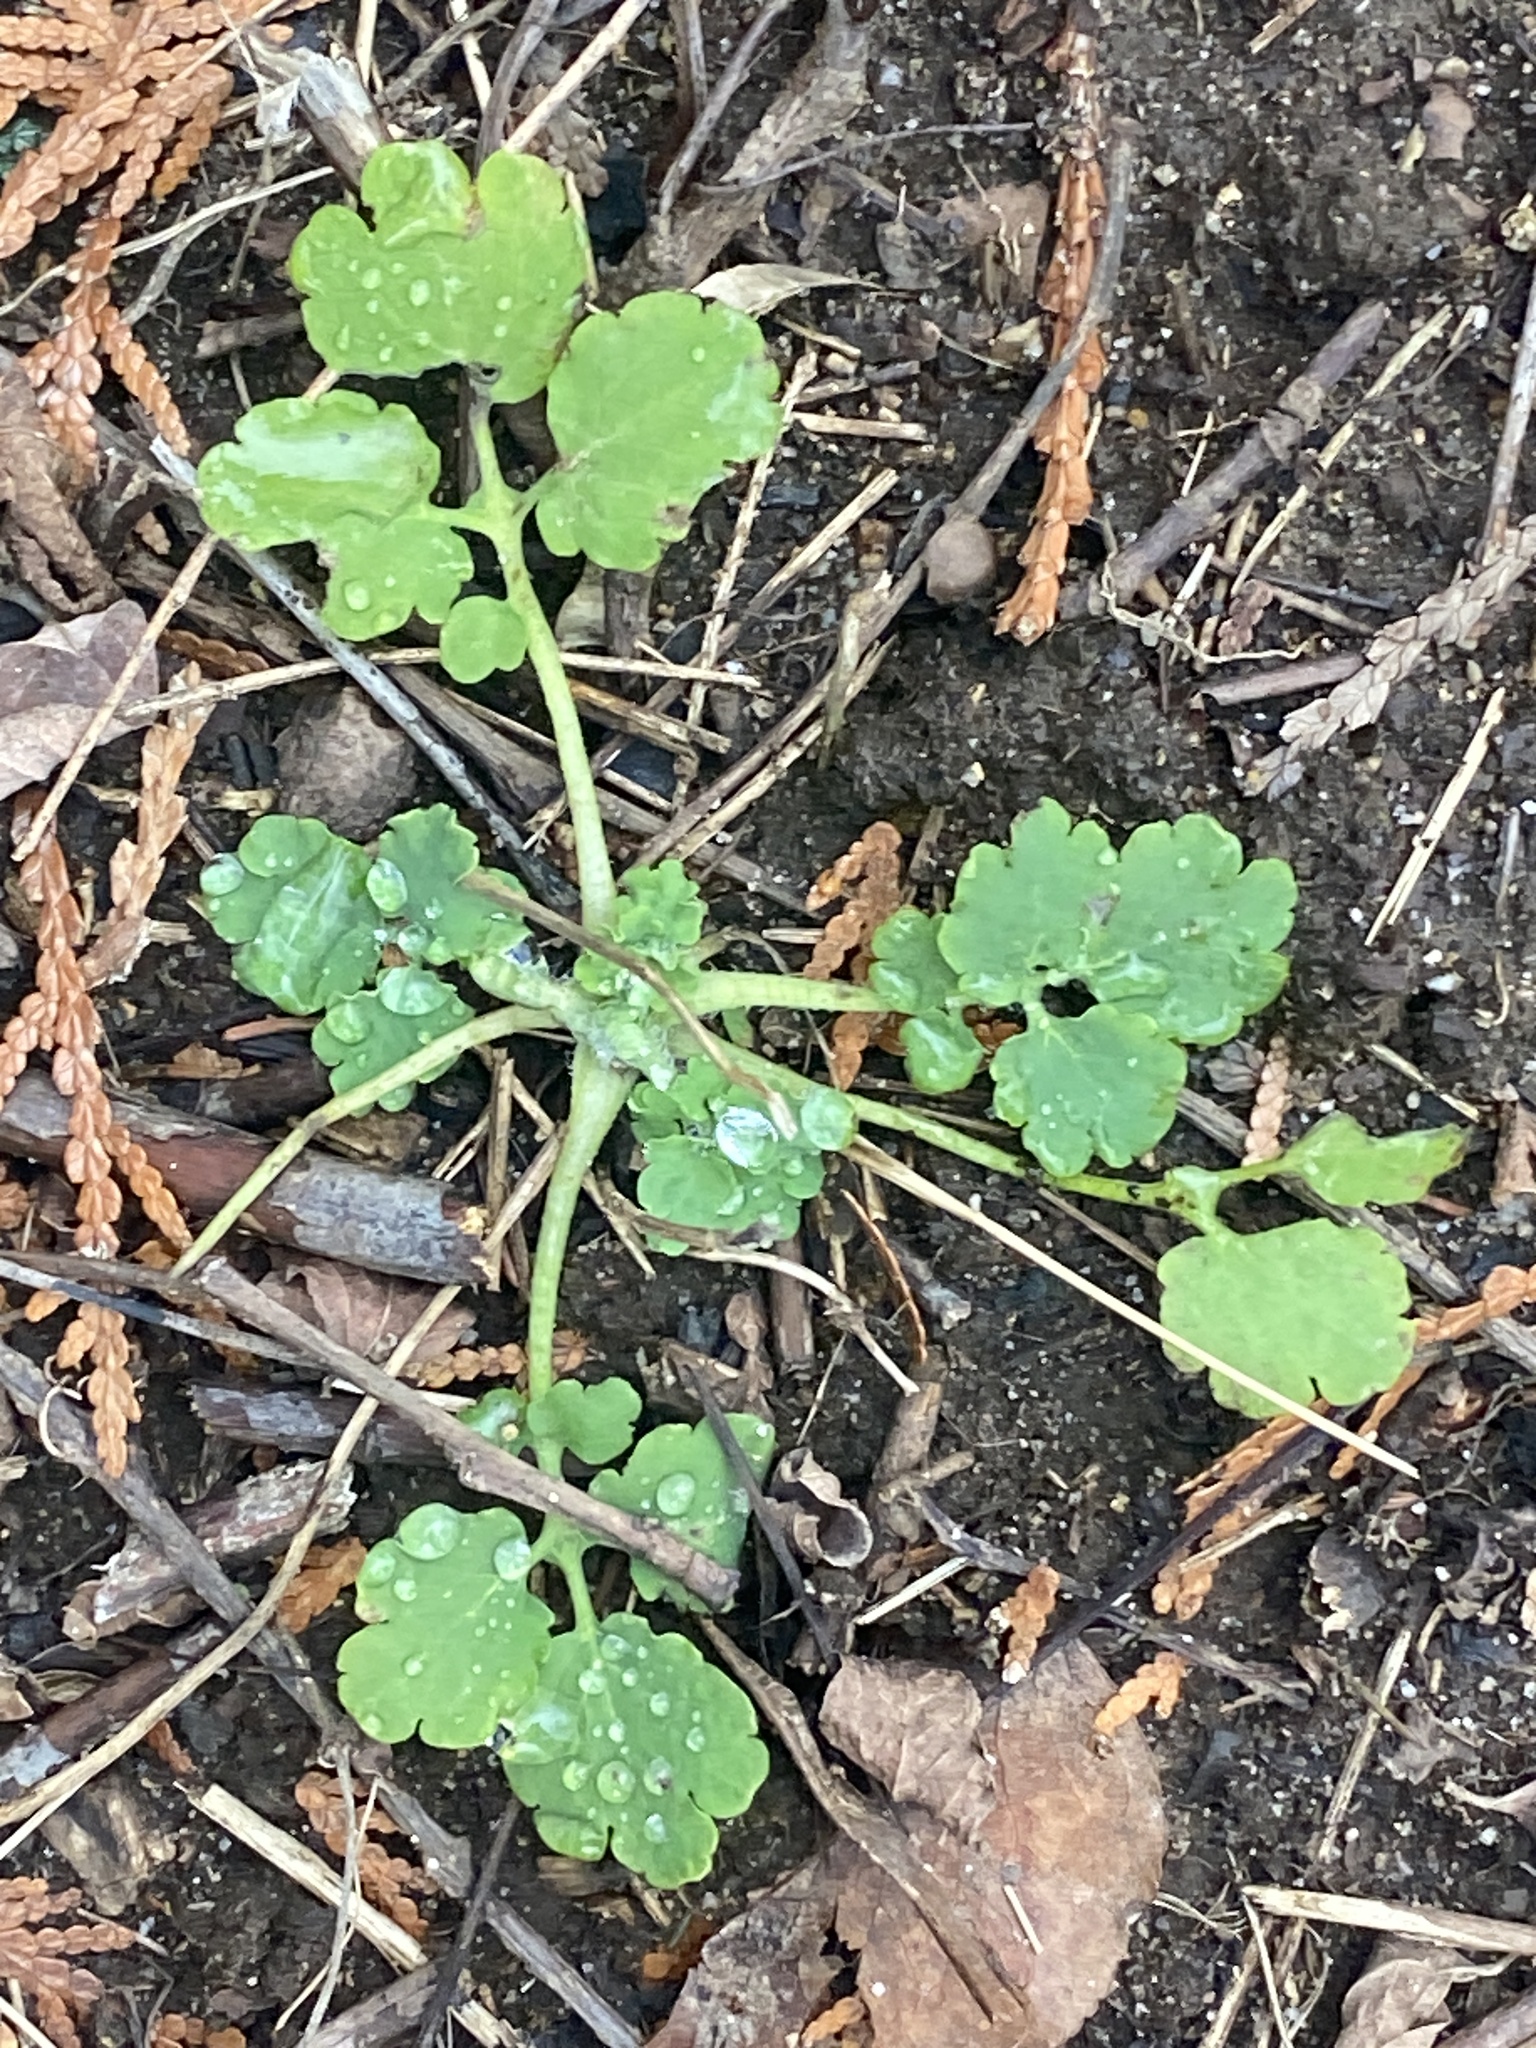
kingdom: Plantae
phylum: Tracheophyta
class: Magnoliopsida
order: Ranunculales
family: Papaveraceae
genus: Chelidonium
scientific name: Chelidonium majus
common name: Greater celandine
